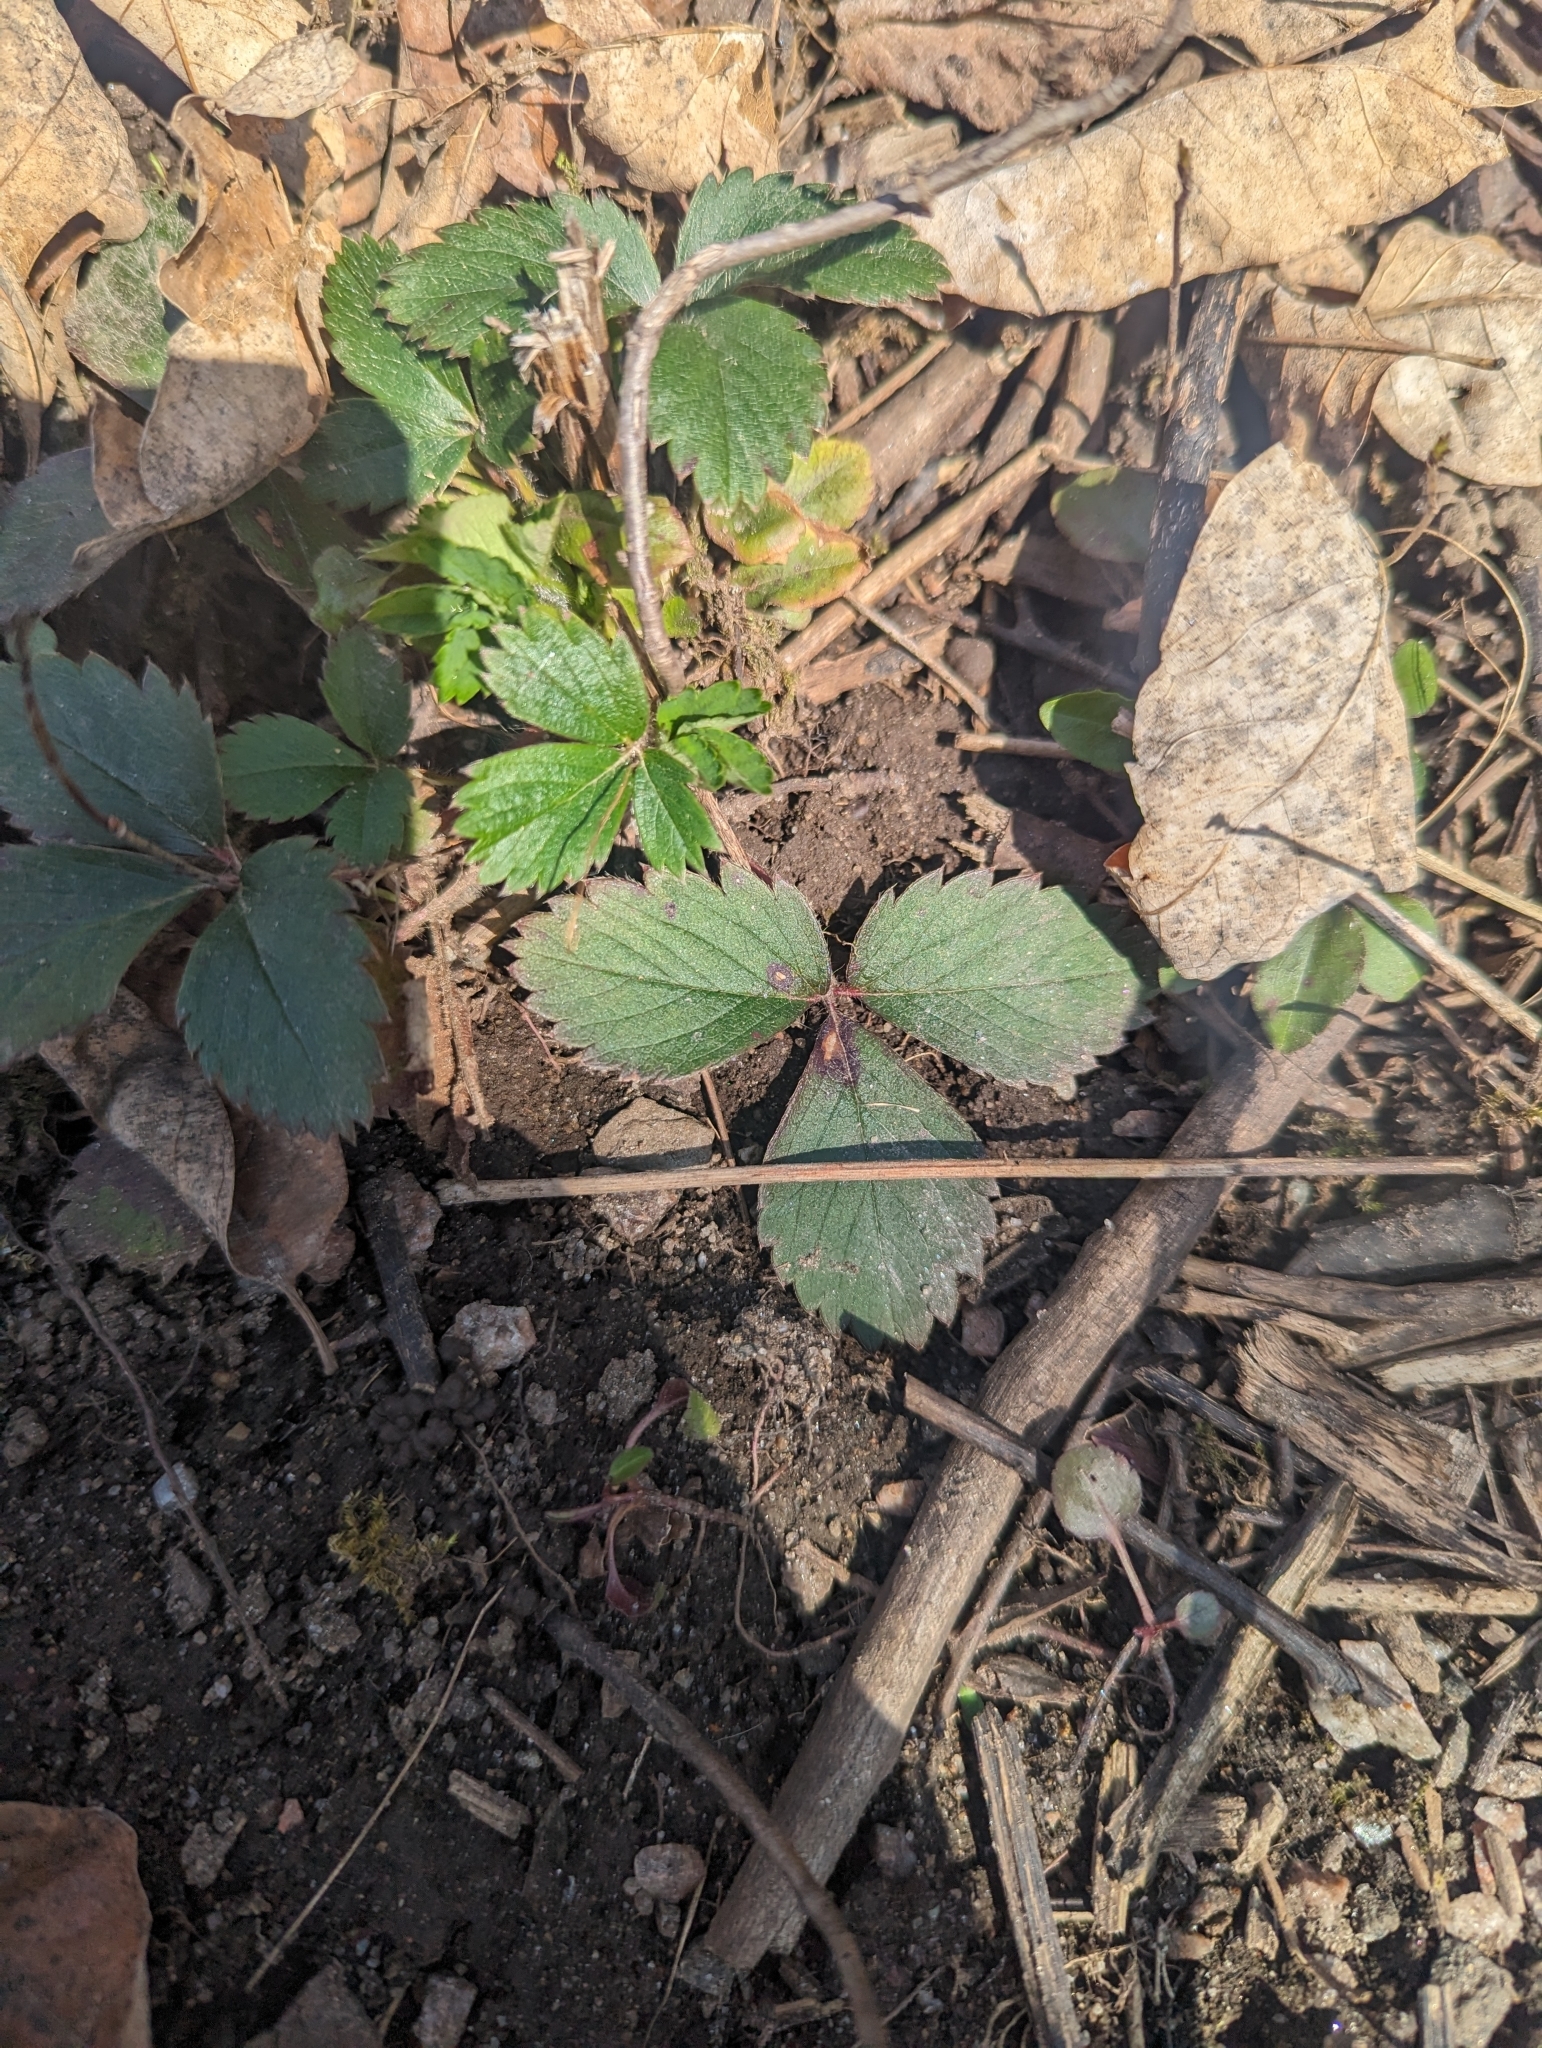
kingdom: Plantae
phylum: Tracheophyta
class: Magnoliopsida
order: Rosales
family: Rosaceae
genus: Fragaria
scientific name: Fragaria virginiana
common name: Thickleaved wild strawberry
